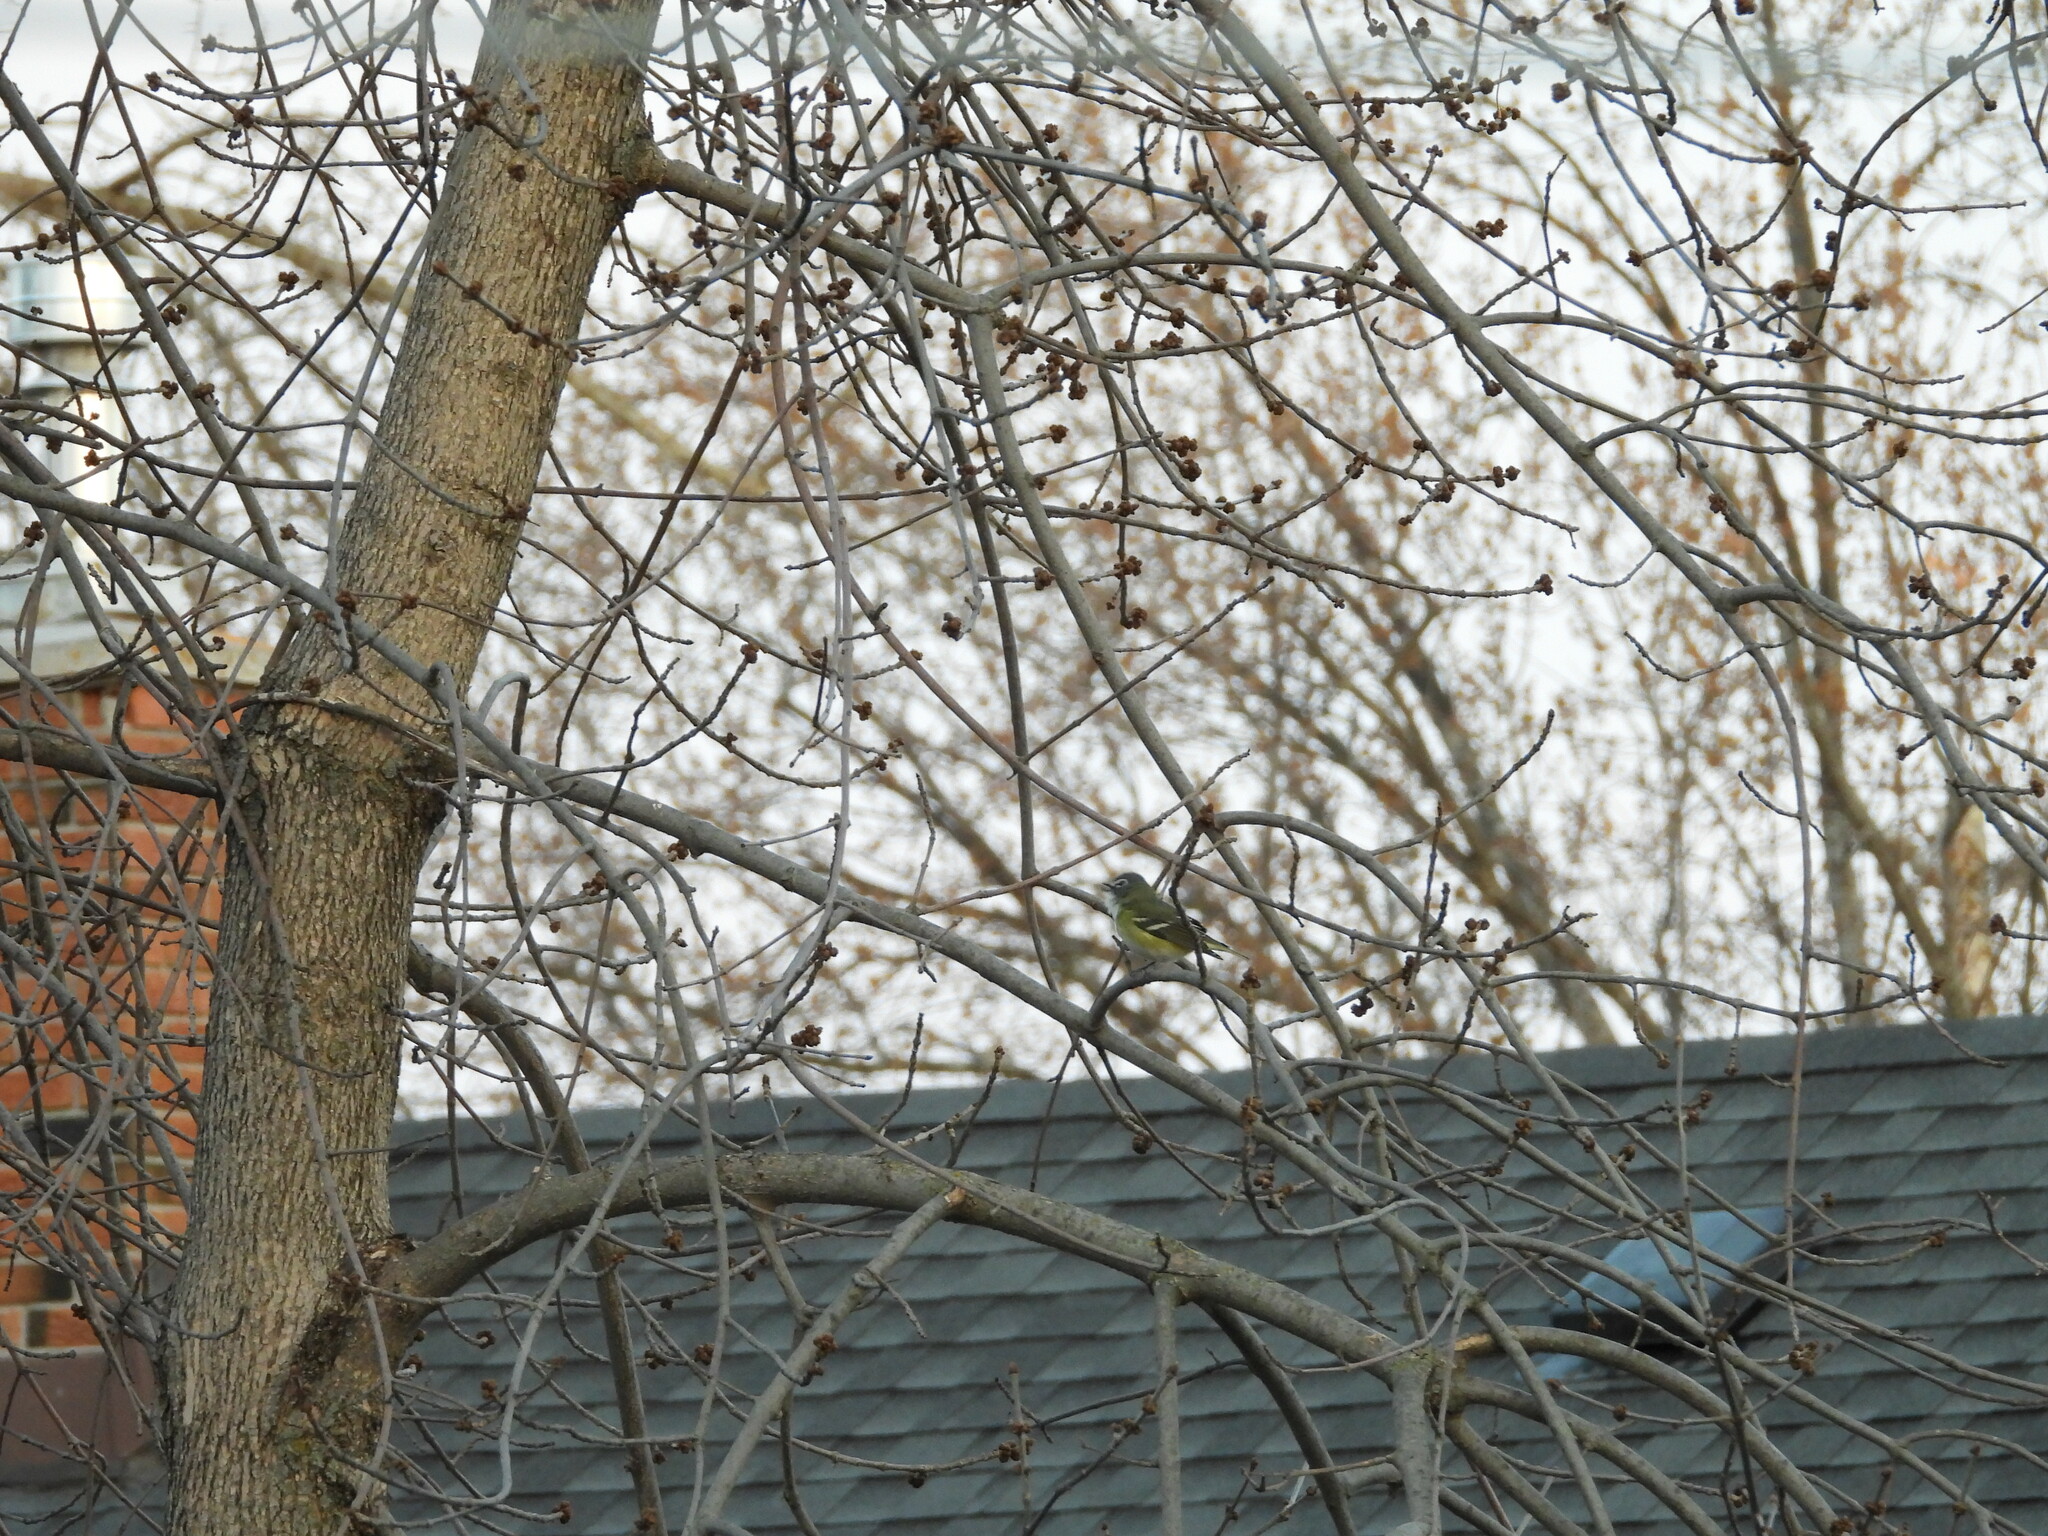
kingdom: Animalia
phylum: Chordata
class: Aves
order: Passeriformes
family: Vireonidae
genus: Vireo
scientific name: Vireo solitarius
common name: Blue-headed vireo
